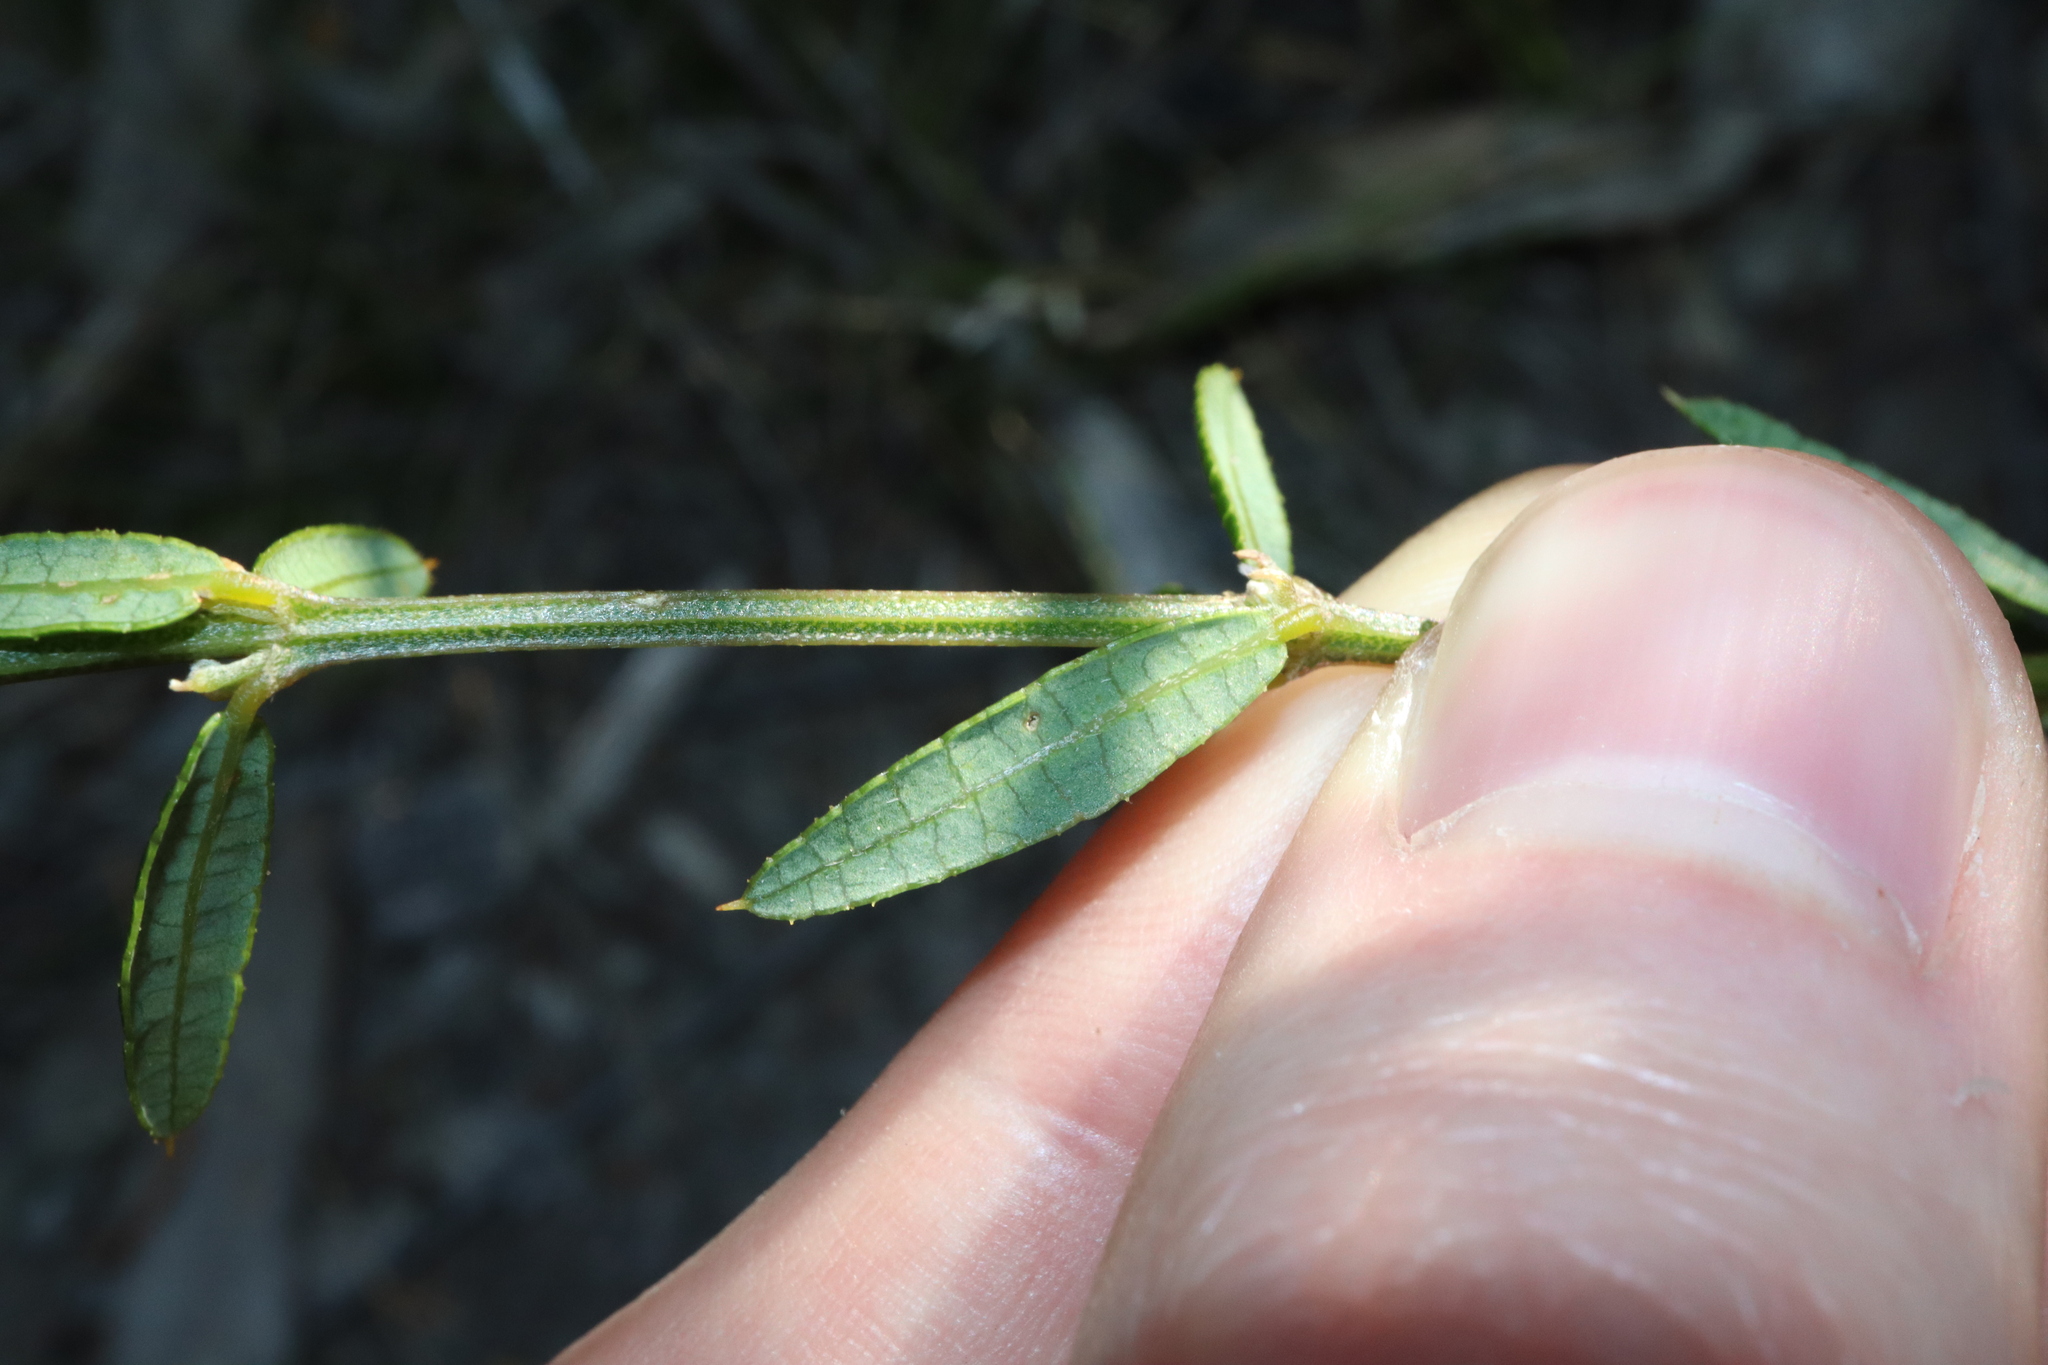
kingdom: Plantae
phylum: Tracheophyta
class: Magnoliopsida
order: Fabales
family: Fabaceae
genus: Mirbelia
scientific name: Mirbelia rubiifolia
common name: Heathy mirbelia
